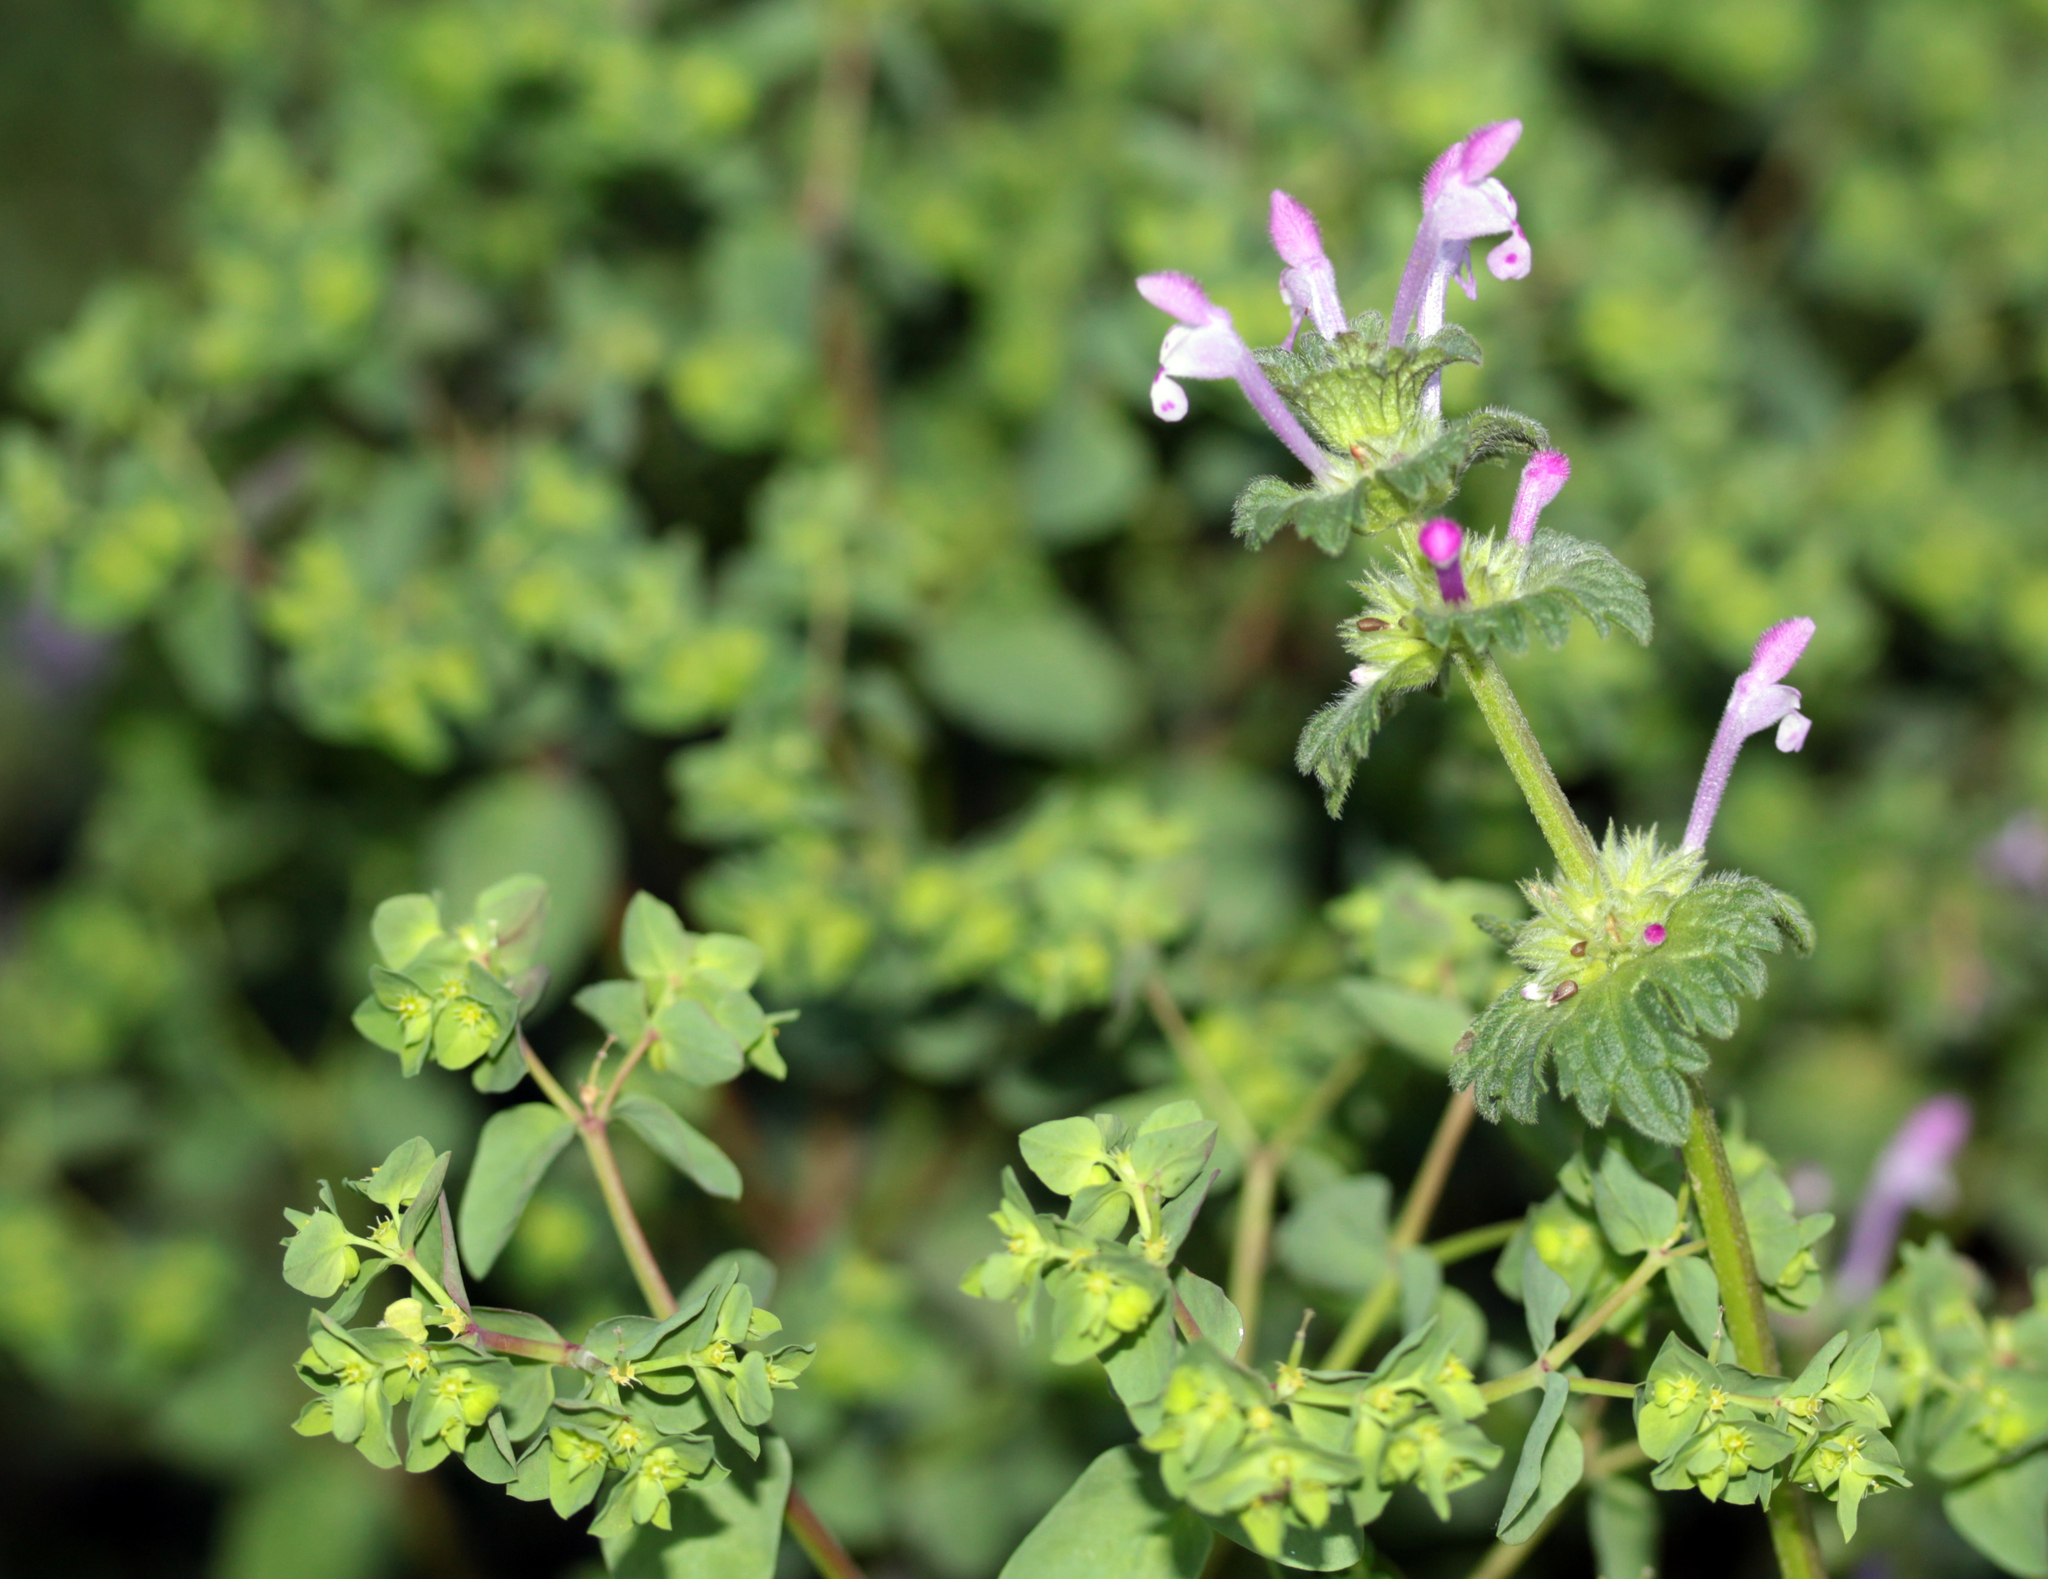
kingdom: Plantae
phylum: Tracheophyta
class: Magnoliopsida
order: Lamiales
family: Lamiaceae
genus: Lamium
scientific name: Lamium amplexicaule
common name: Henbit dead-nettle
